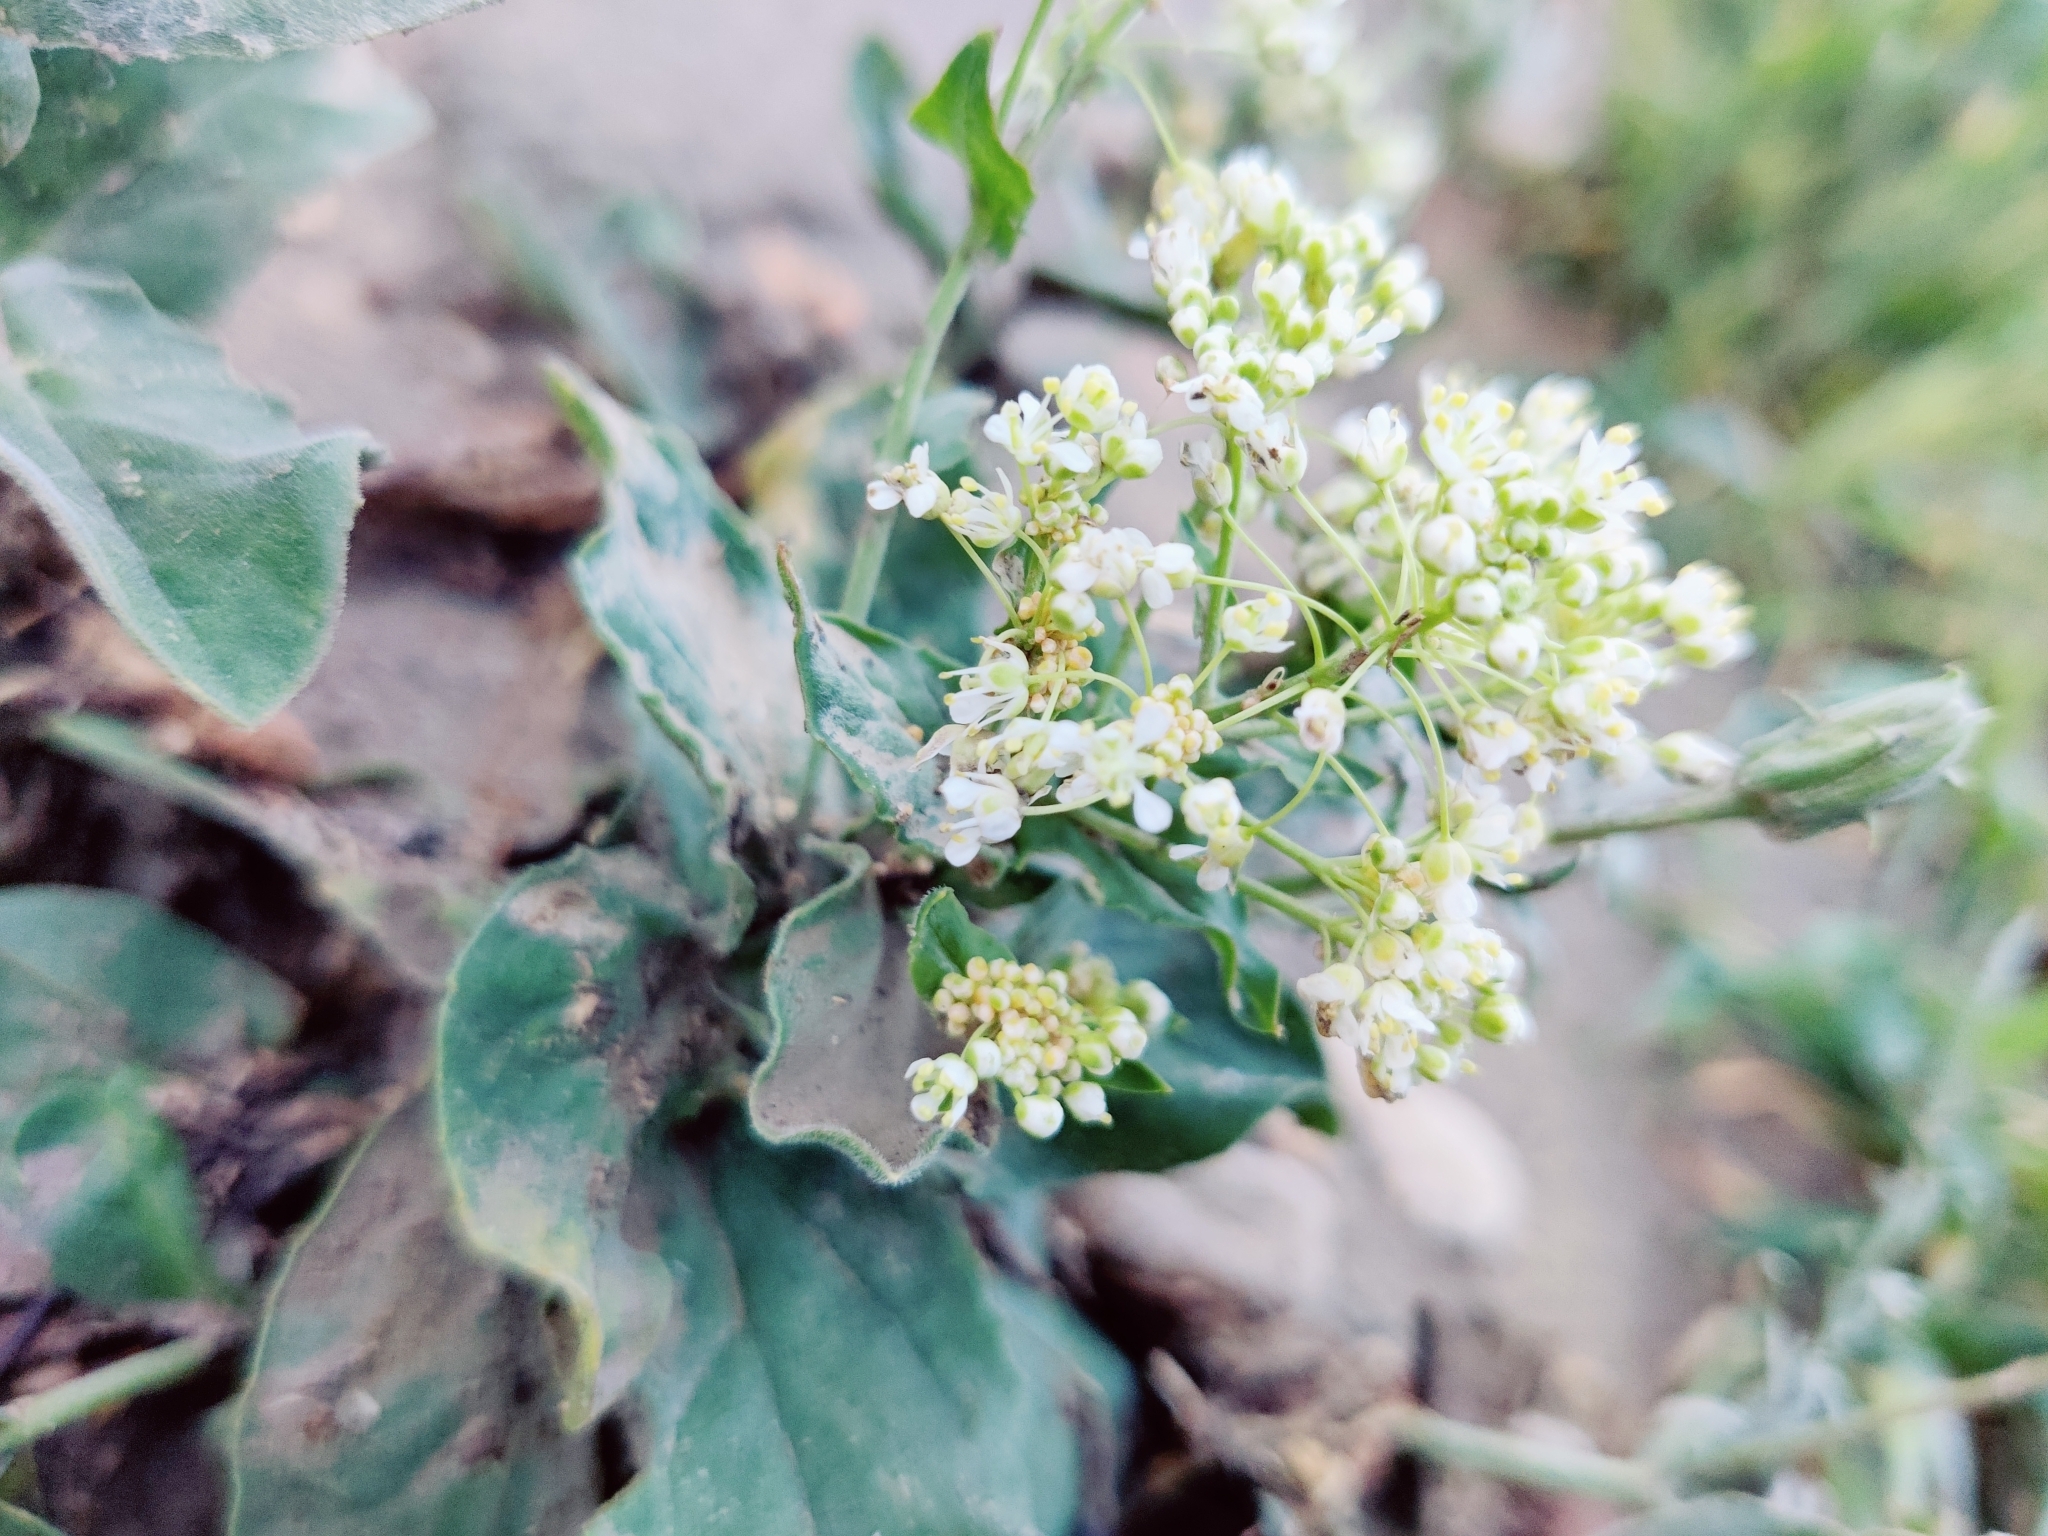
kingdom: Plantae
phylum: Tracheophyta
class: Magnoliopsida
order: Brassicales
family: Brassicaceae
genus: Lepidium
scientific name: Lepidium draba
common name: Hoary cress
